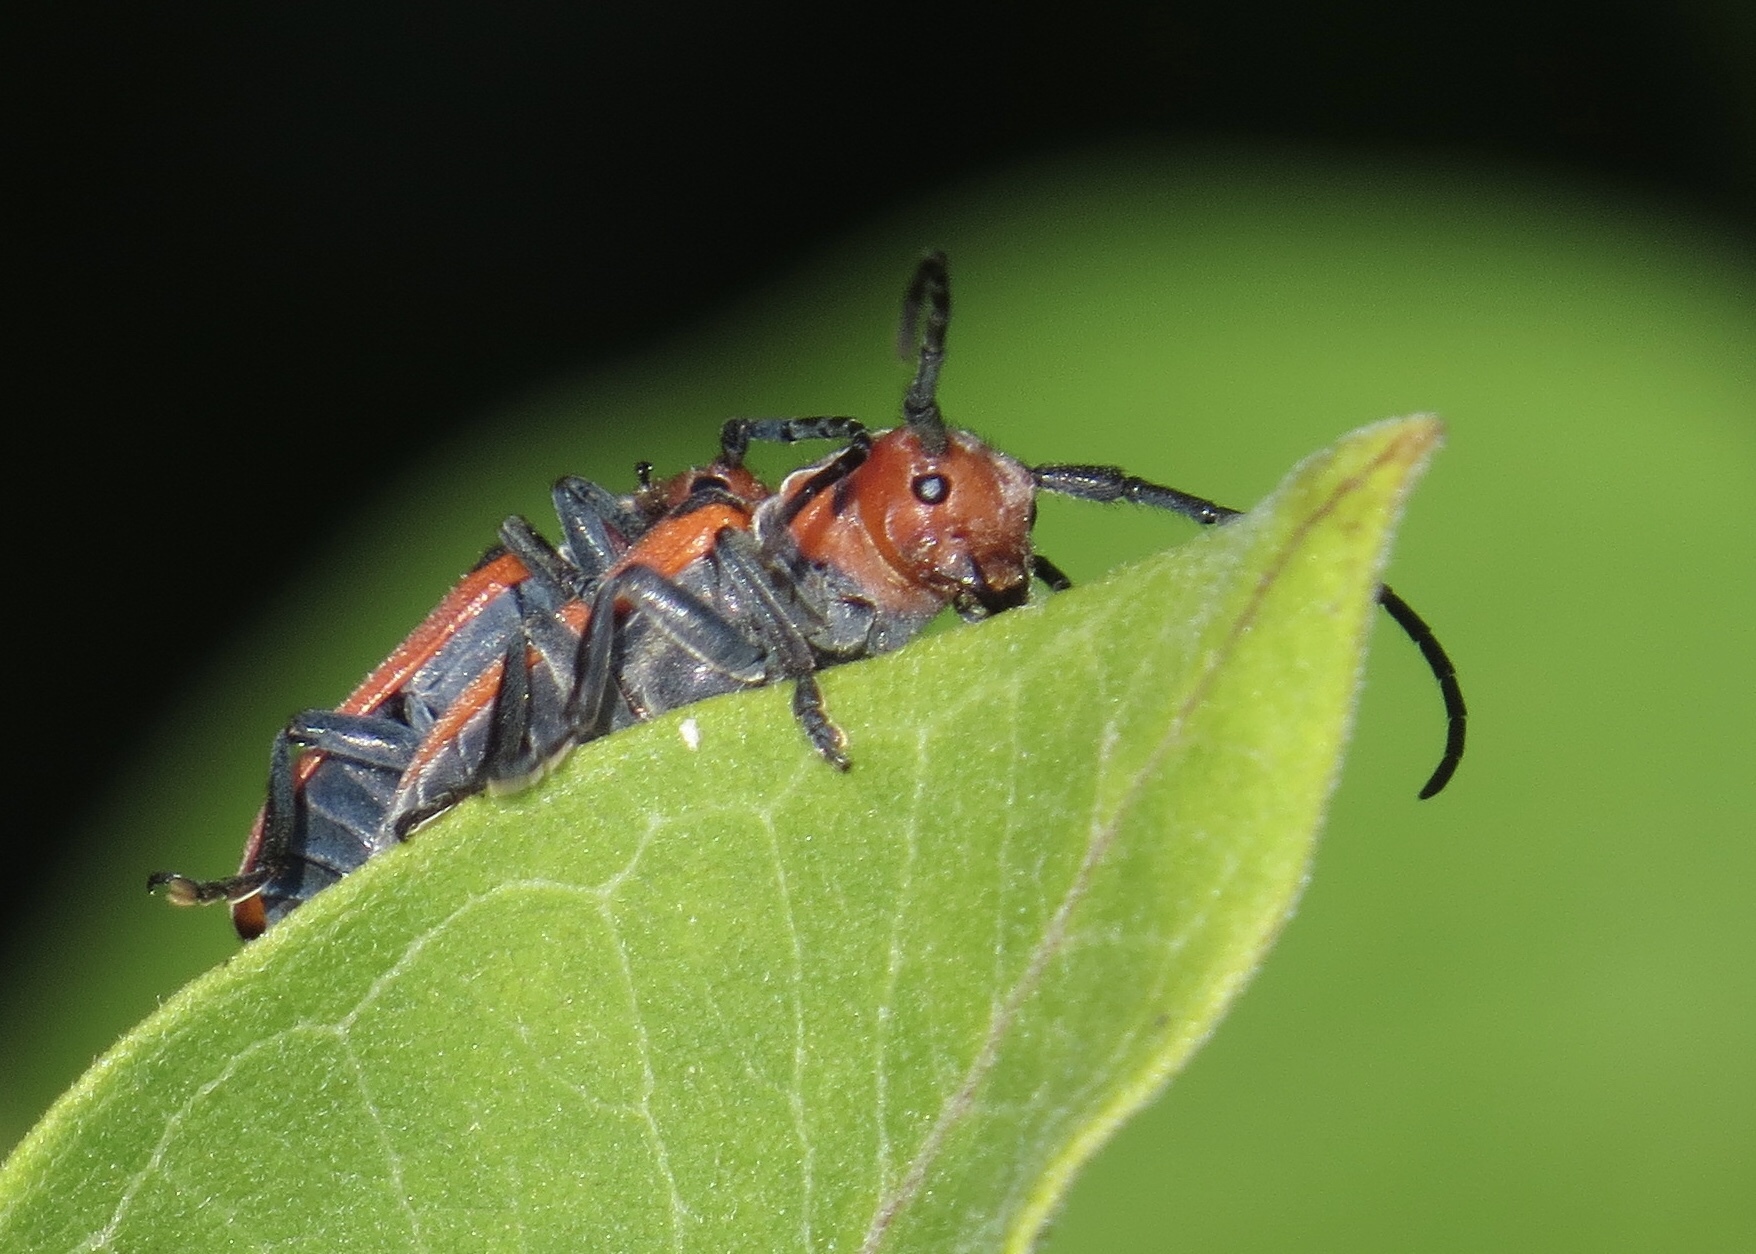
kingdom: Animalia
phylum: Arthropoda
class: Insecta
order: Coleoptera
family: Cerambycidae
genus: Tetraopes
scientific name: Tetraopes tetrophthalmus
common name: Red milkweed beetle
